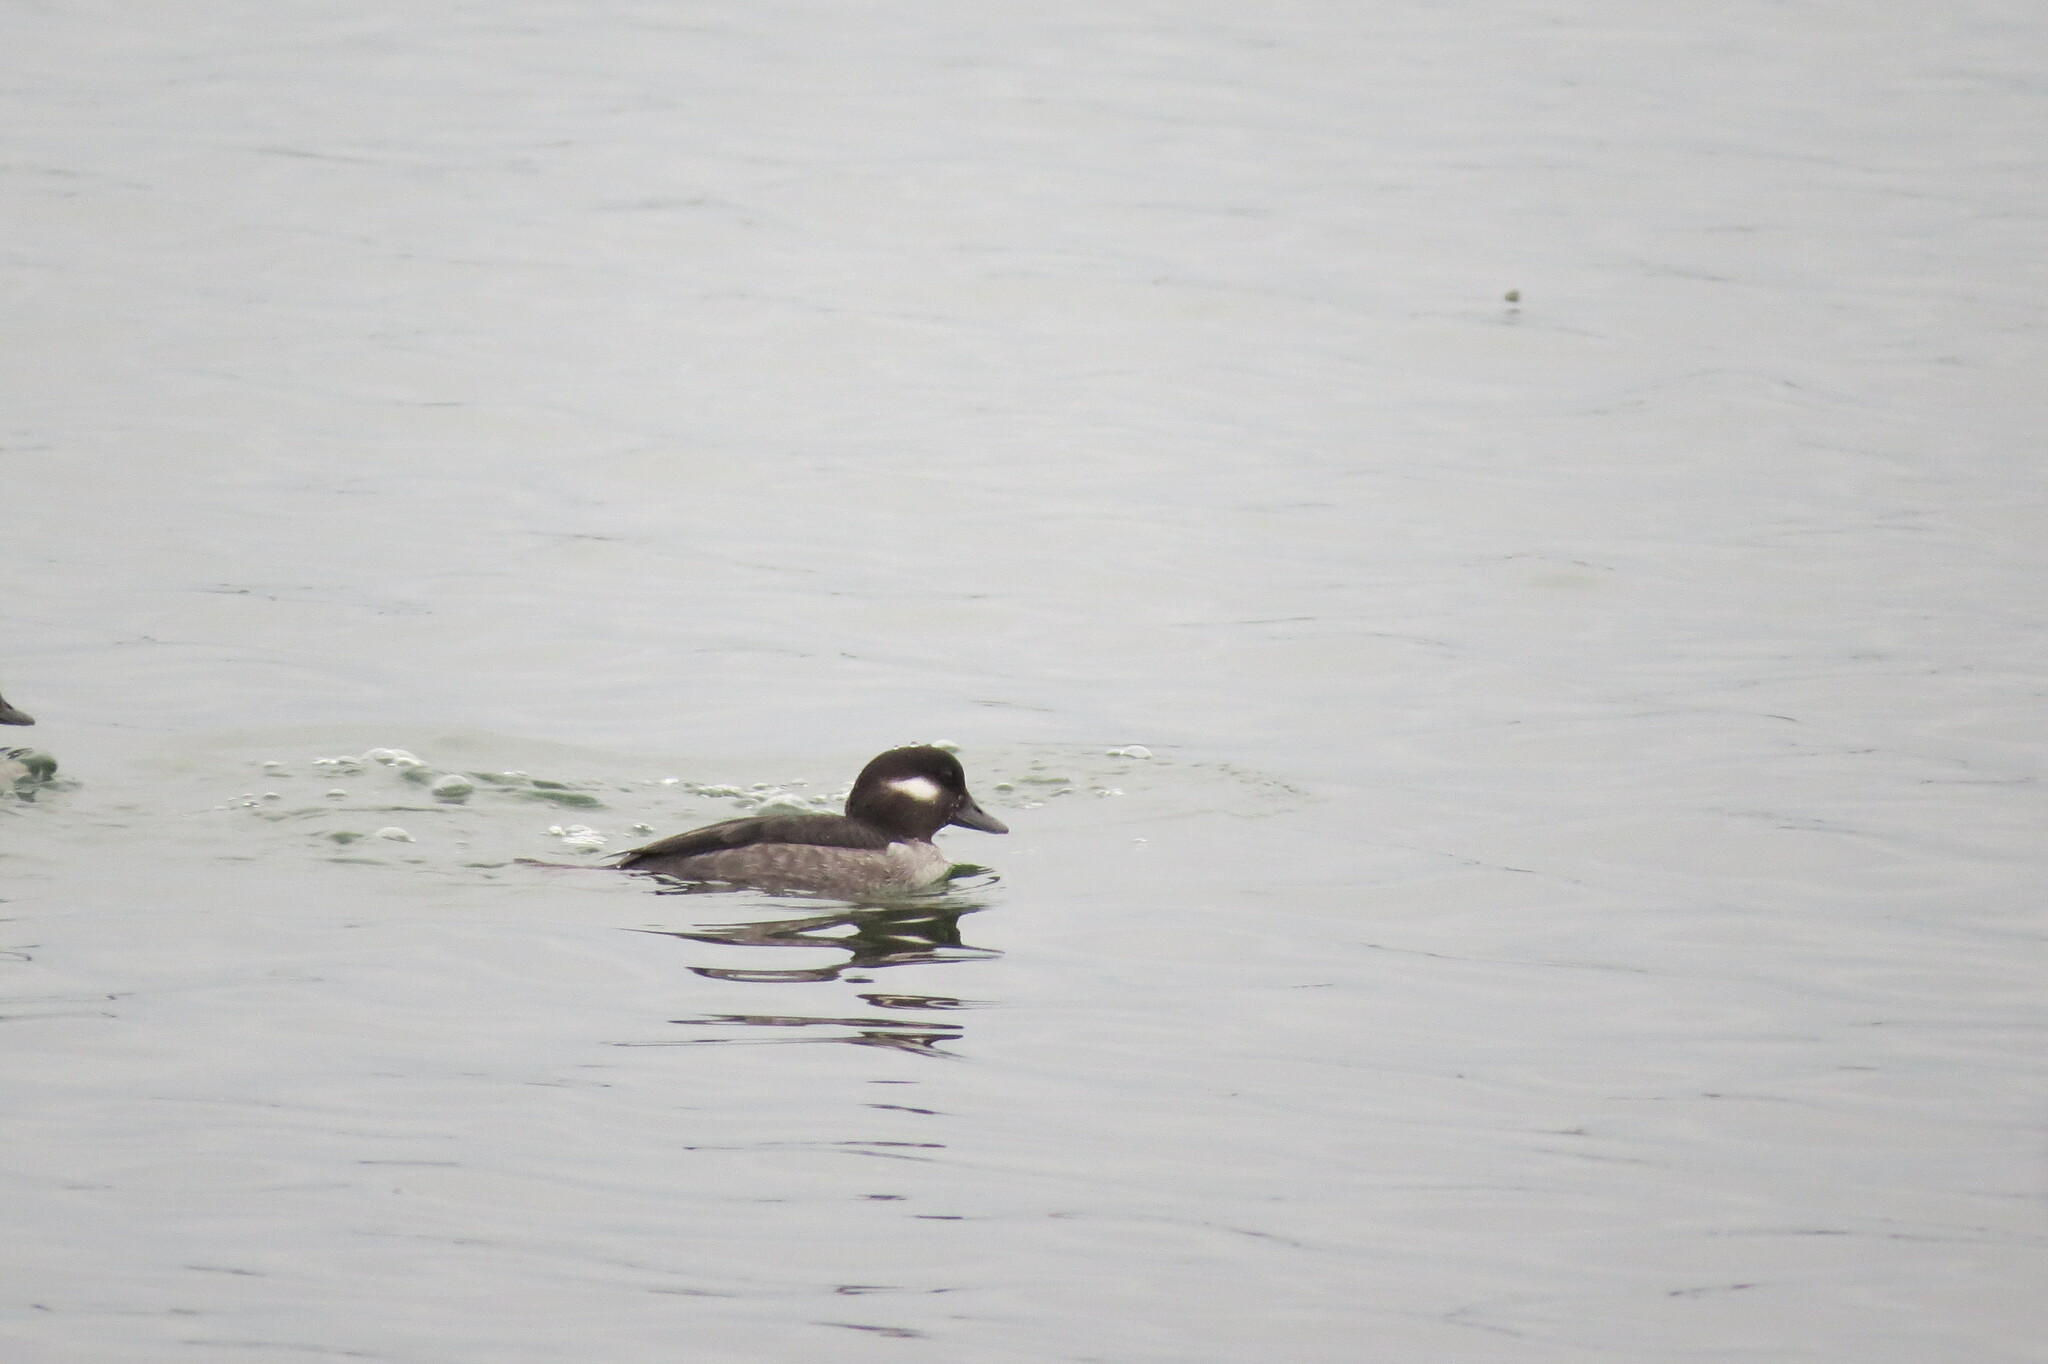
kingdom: Animalia
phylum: Chordata
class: Aves
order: Anseriformes
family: Anatidae
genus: Bucephala
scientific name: Bucephala albeola
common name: Bufflehead
